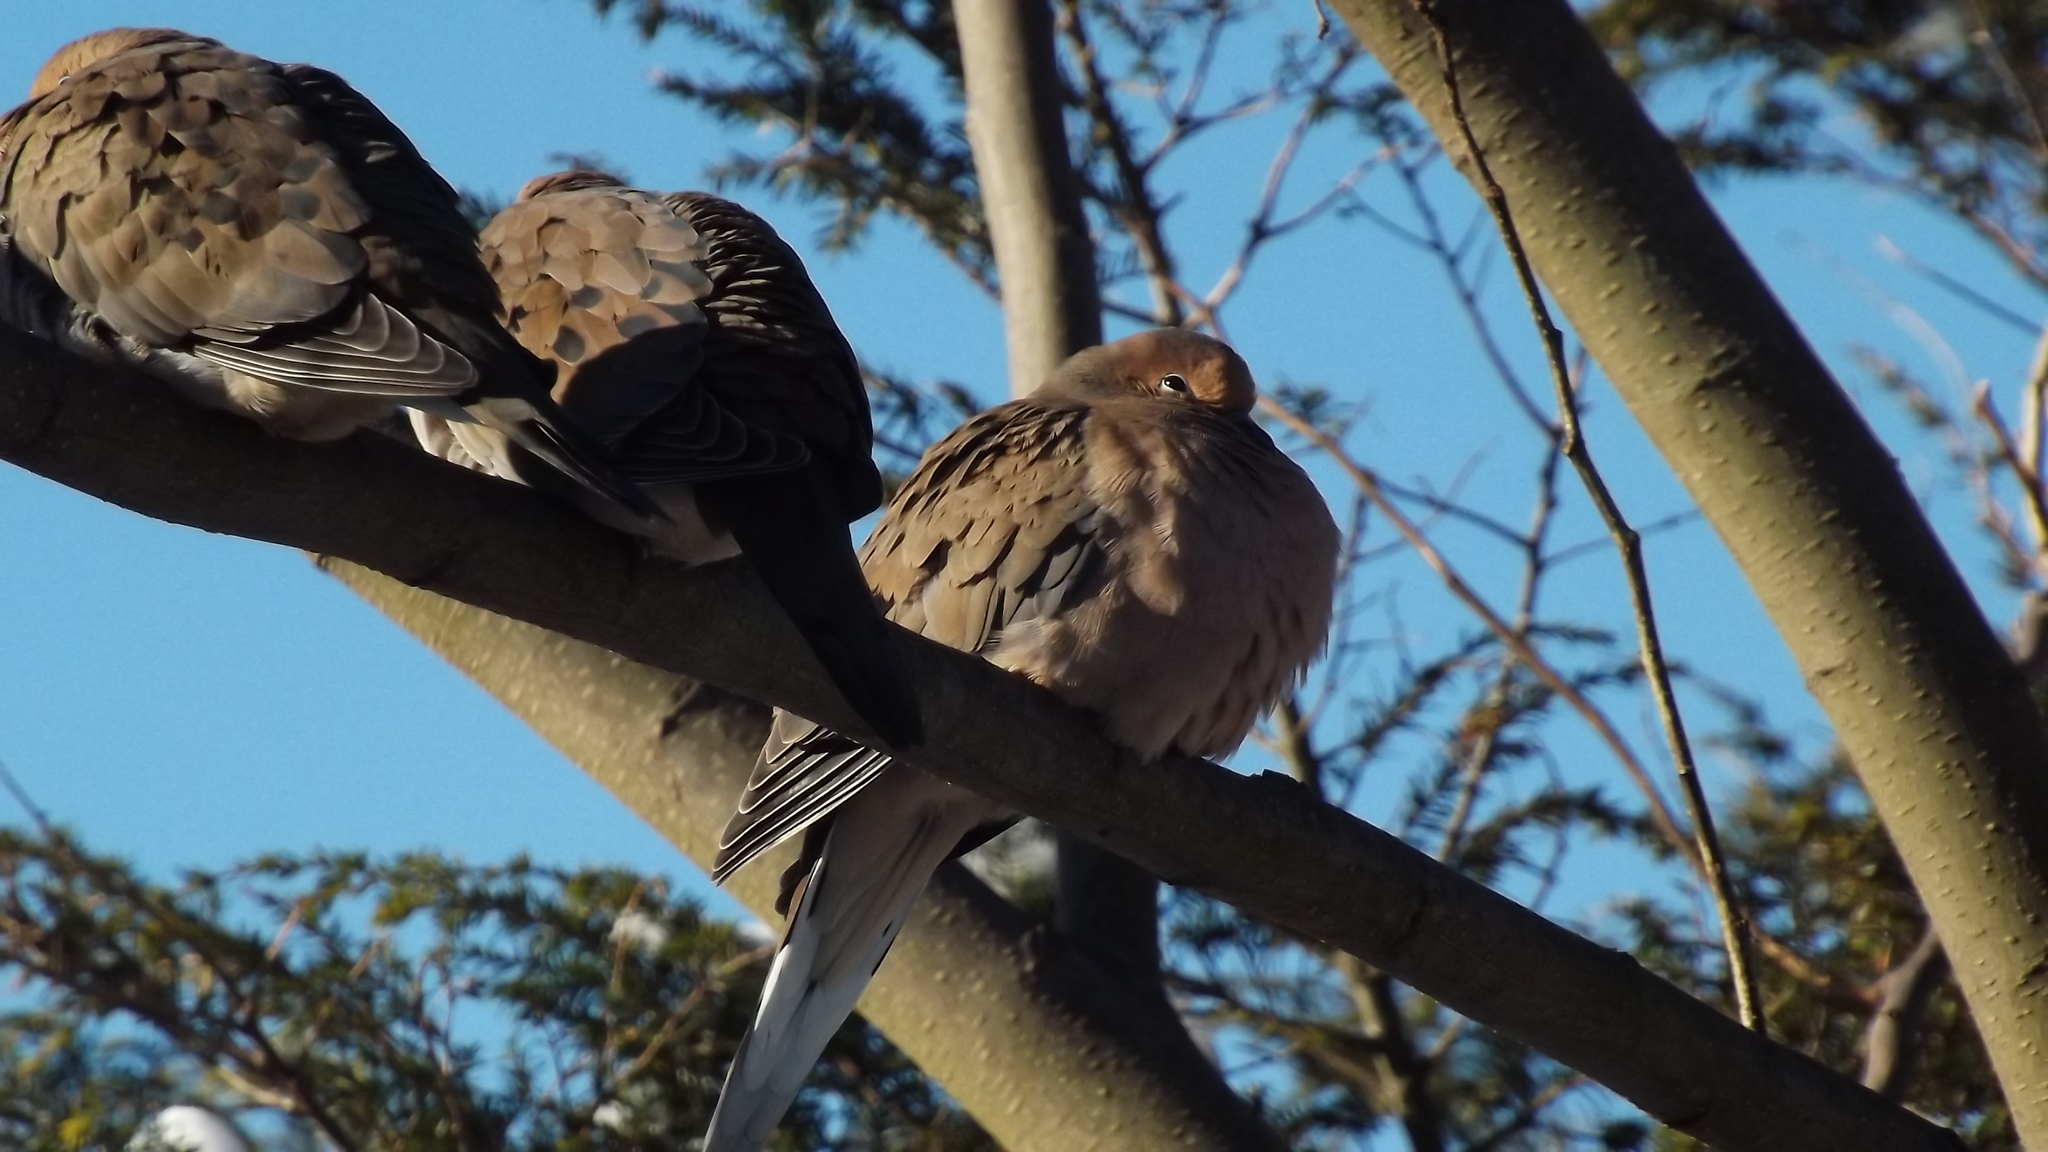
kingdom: Animalia
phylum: Chordata
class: Aves
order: Columbiformes
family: Columbidae
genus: Zenaida
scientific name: Zenaida macroura
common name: Mourning dove
